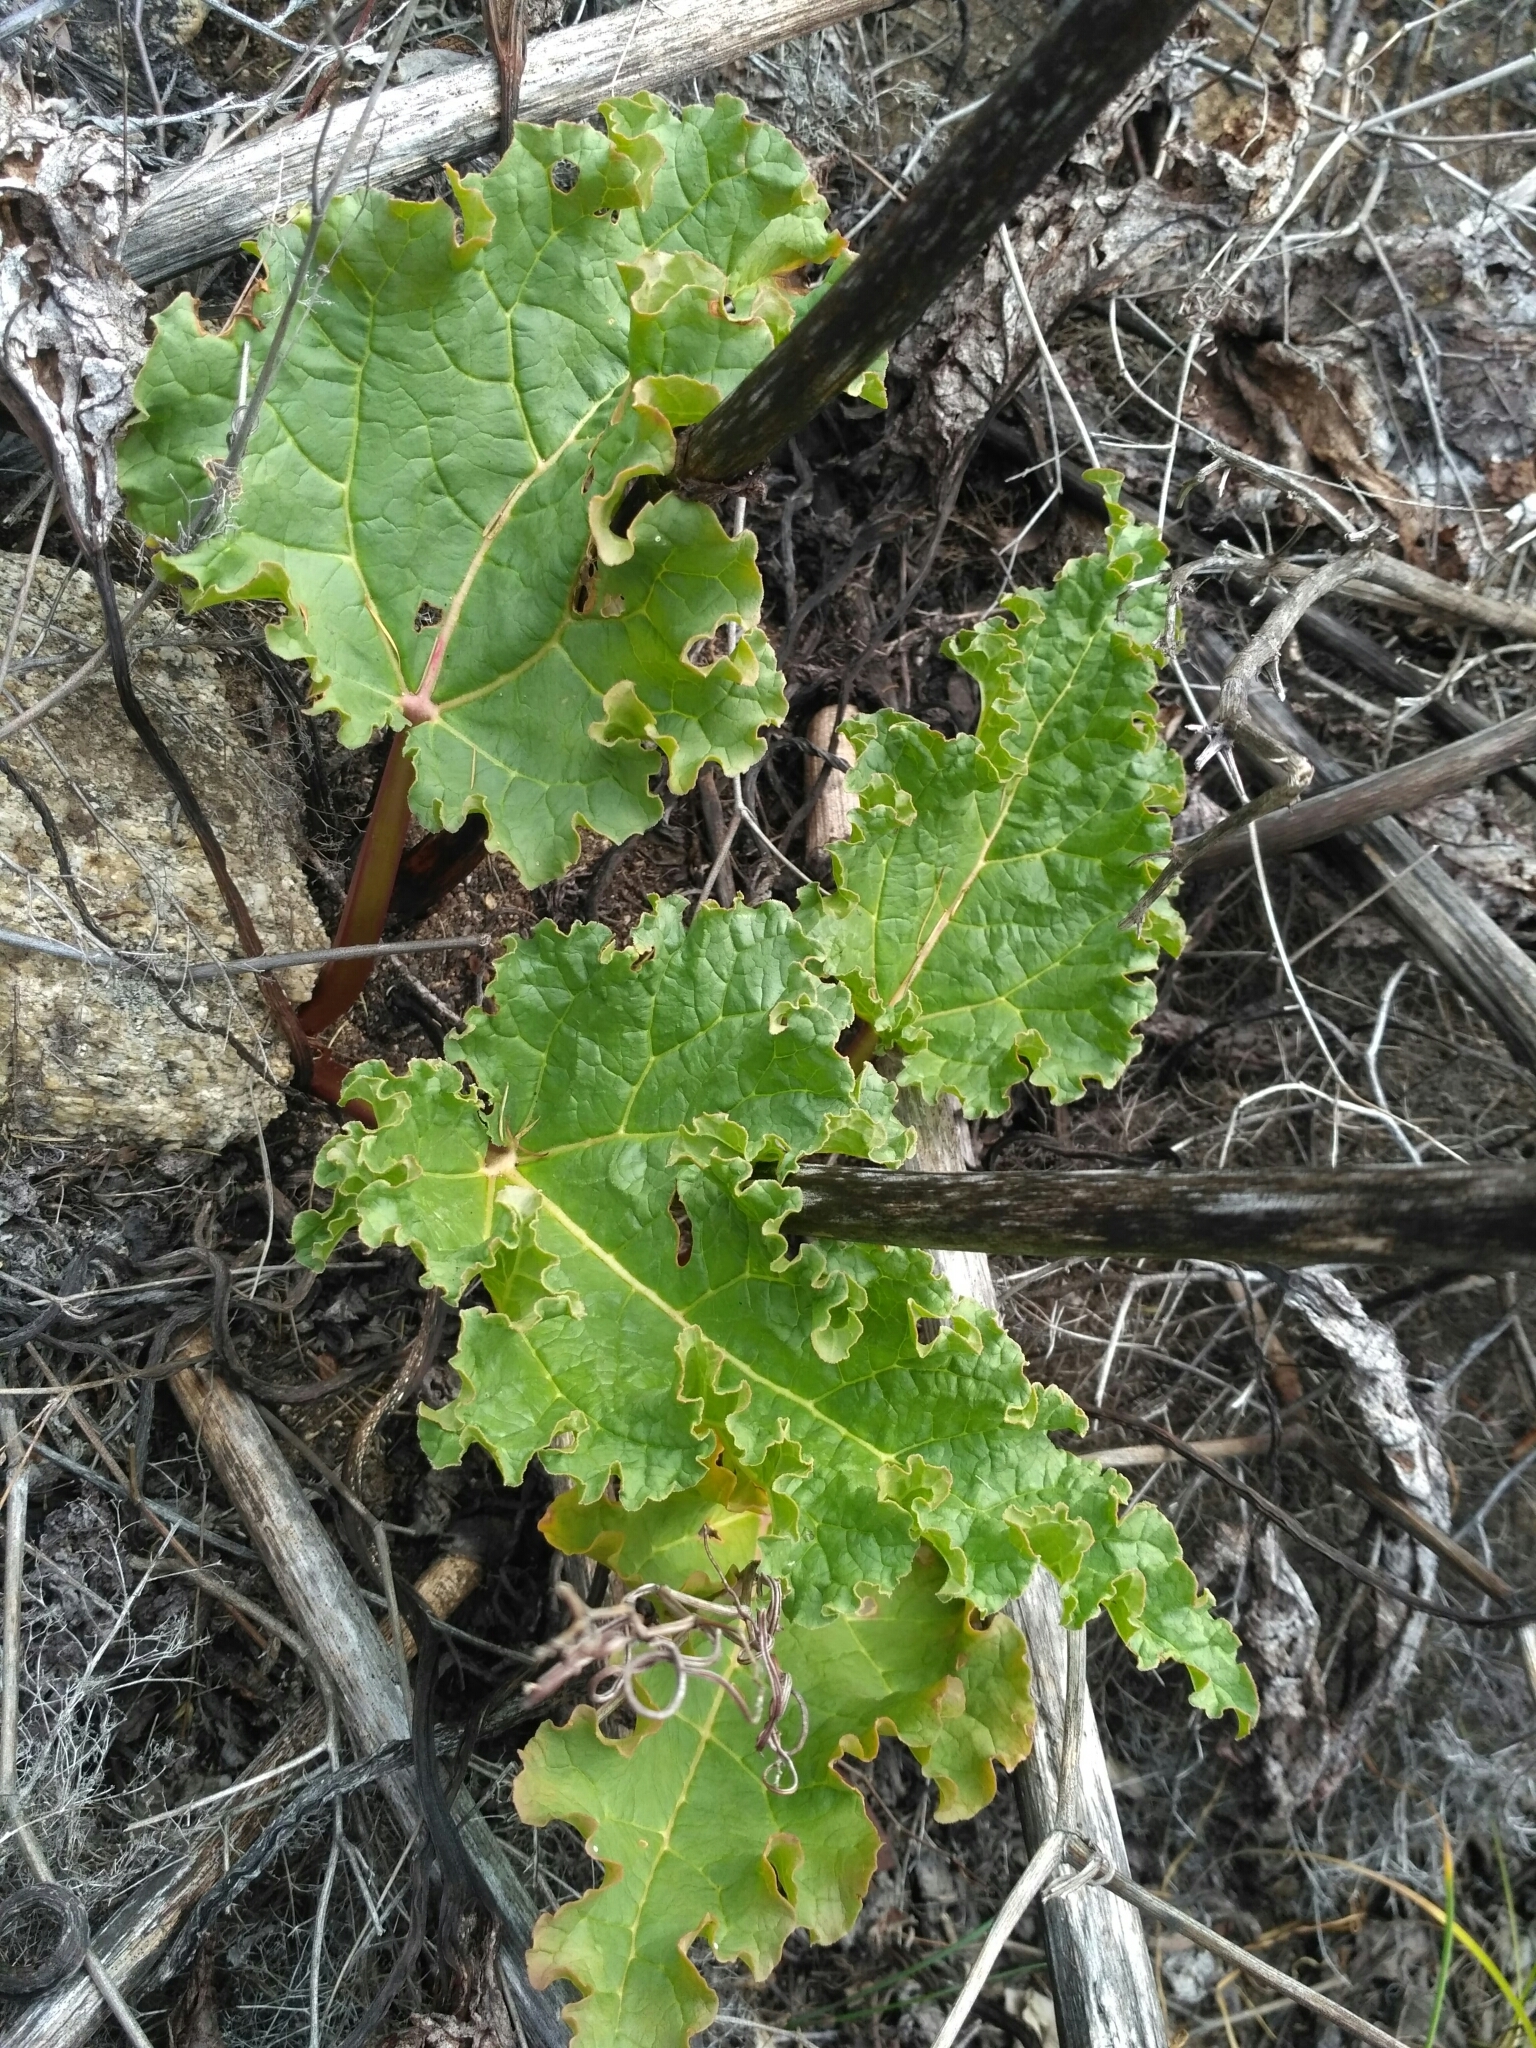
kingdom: Plantae
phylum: Tracheophyta
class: Magnoliopsida
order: Caryophyllales
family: Polygonaceae
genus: Rheum
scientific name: Rheum rhabarbarum
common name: Garden rhubarb
